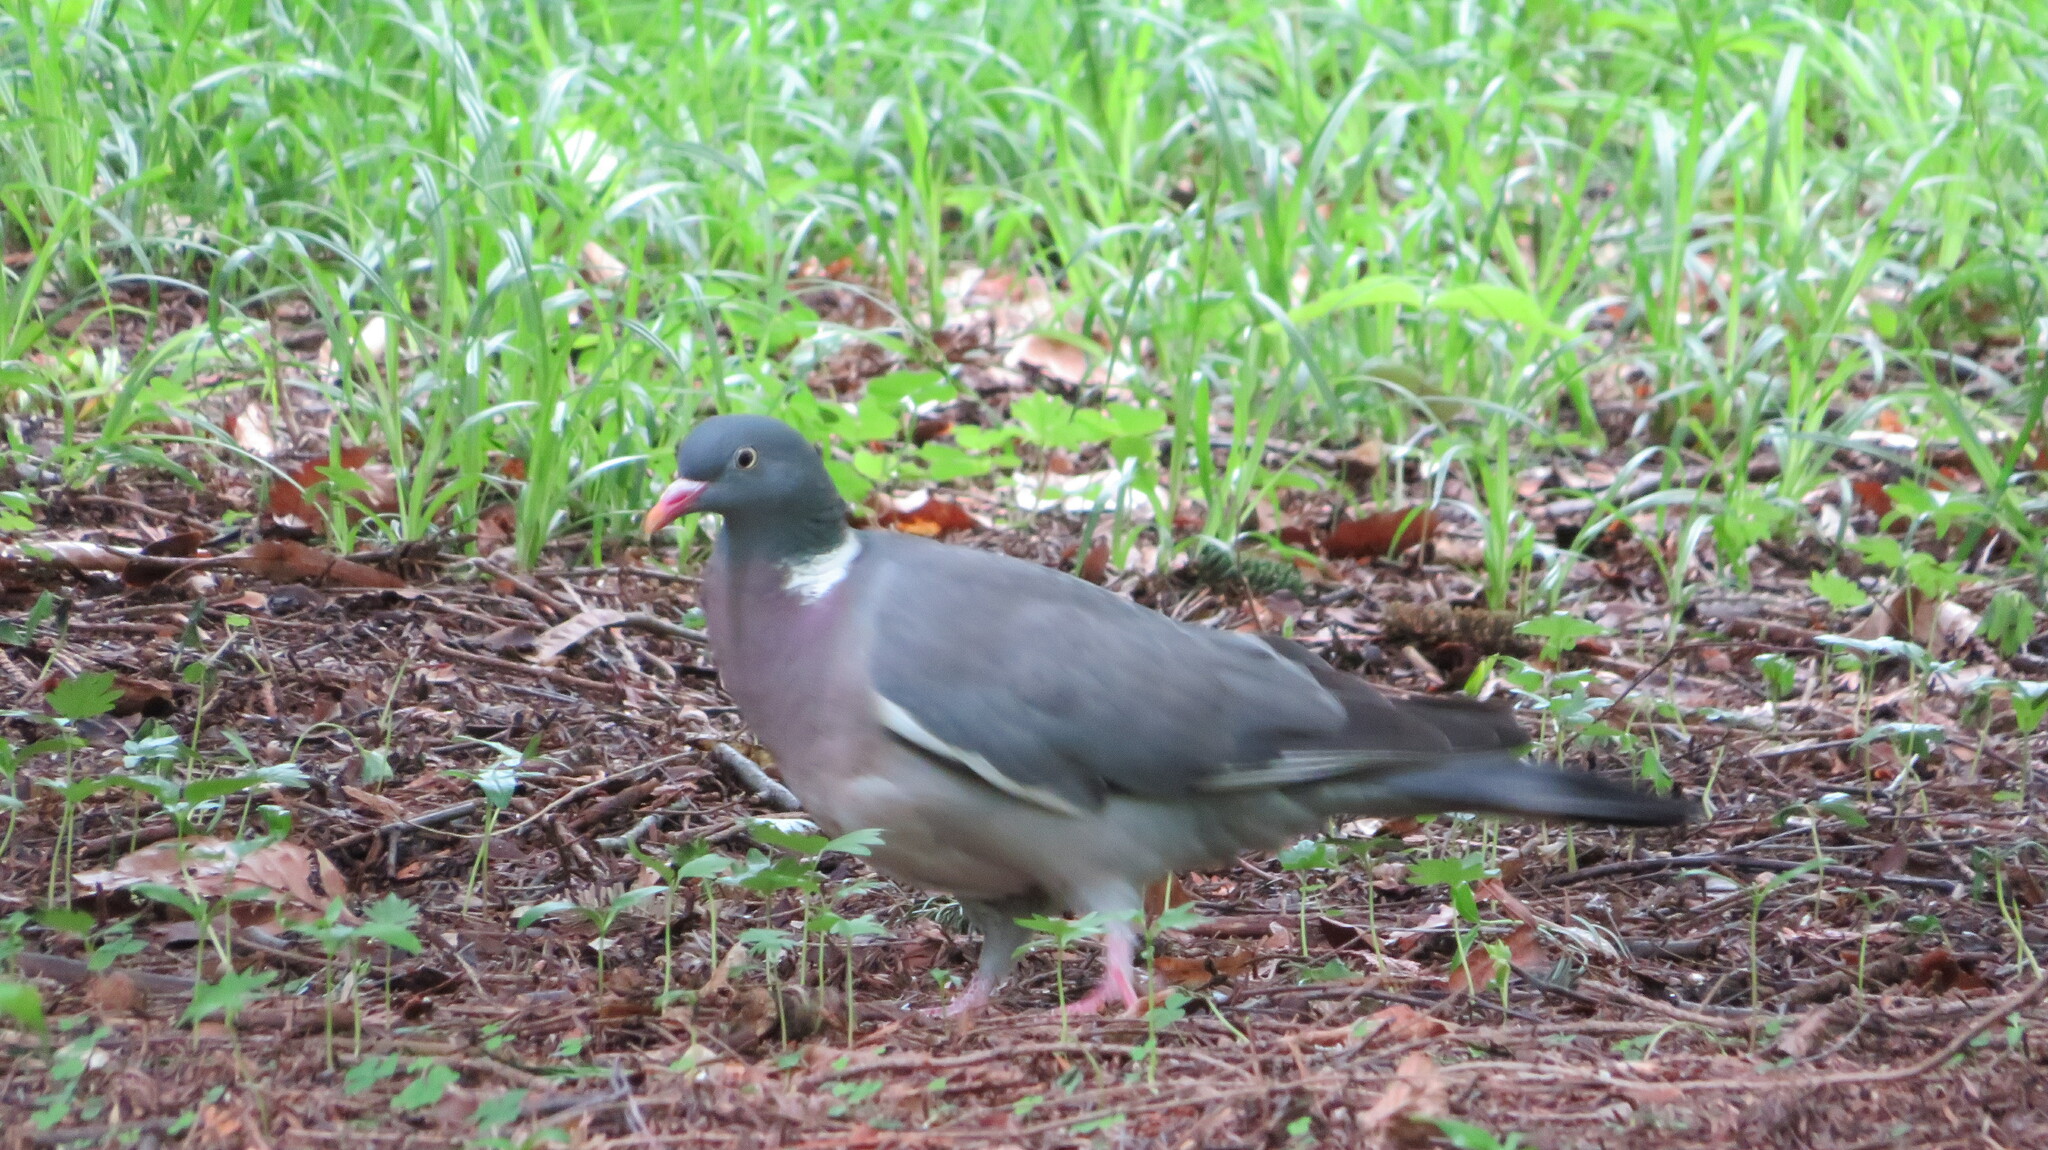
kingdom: Animalia
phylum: Chordata
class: Aves
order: Columbiformes
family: Columbidae
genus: Columba
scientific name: Columba palumbus
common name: Common wood pigeon
